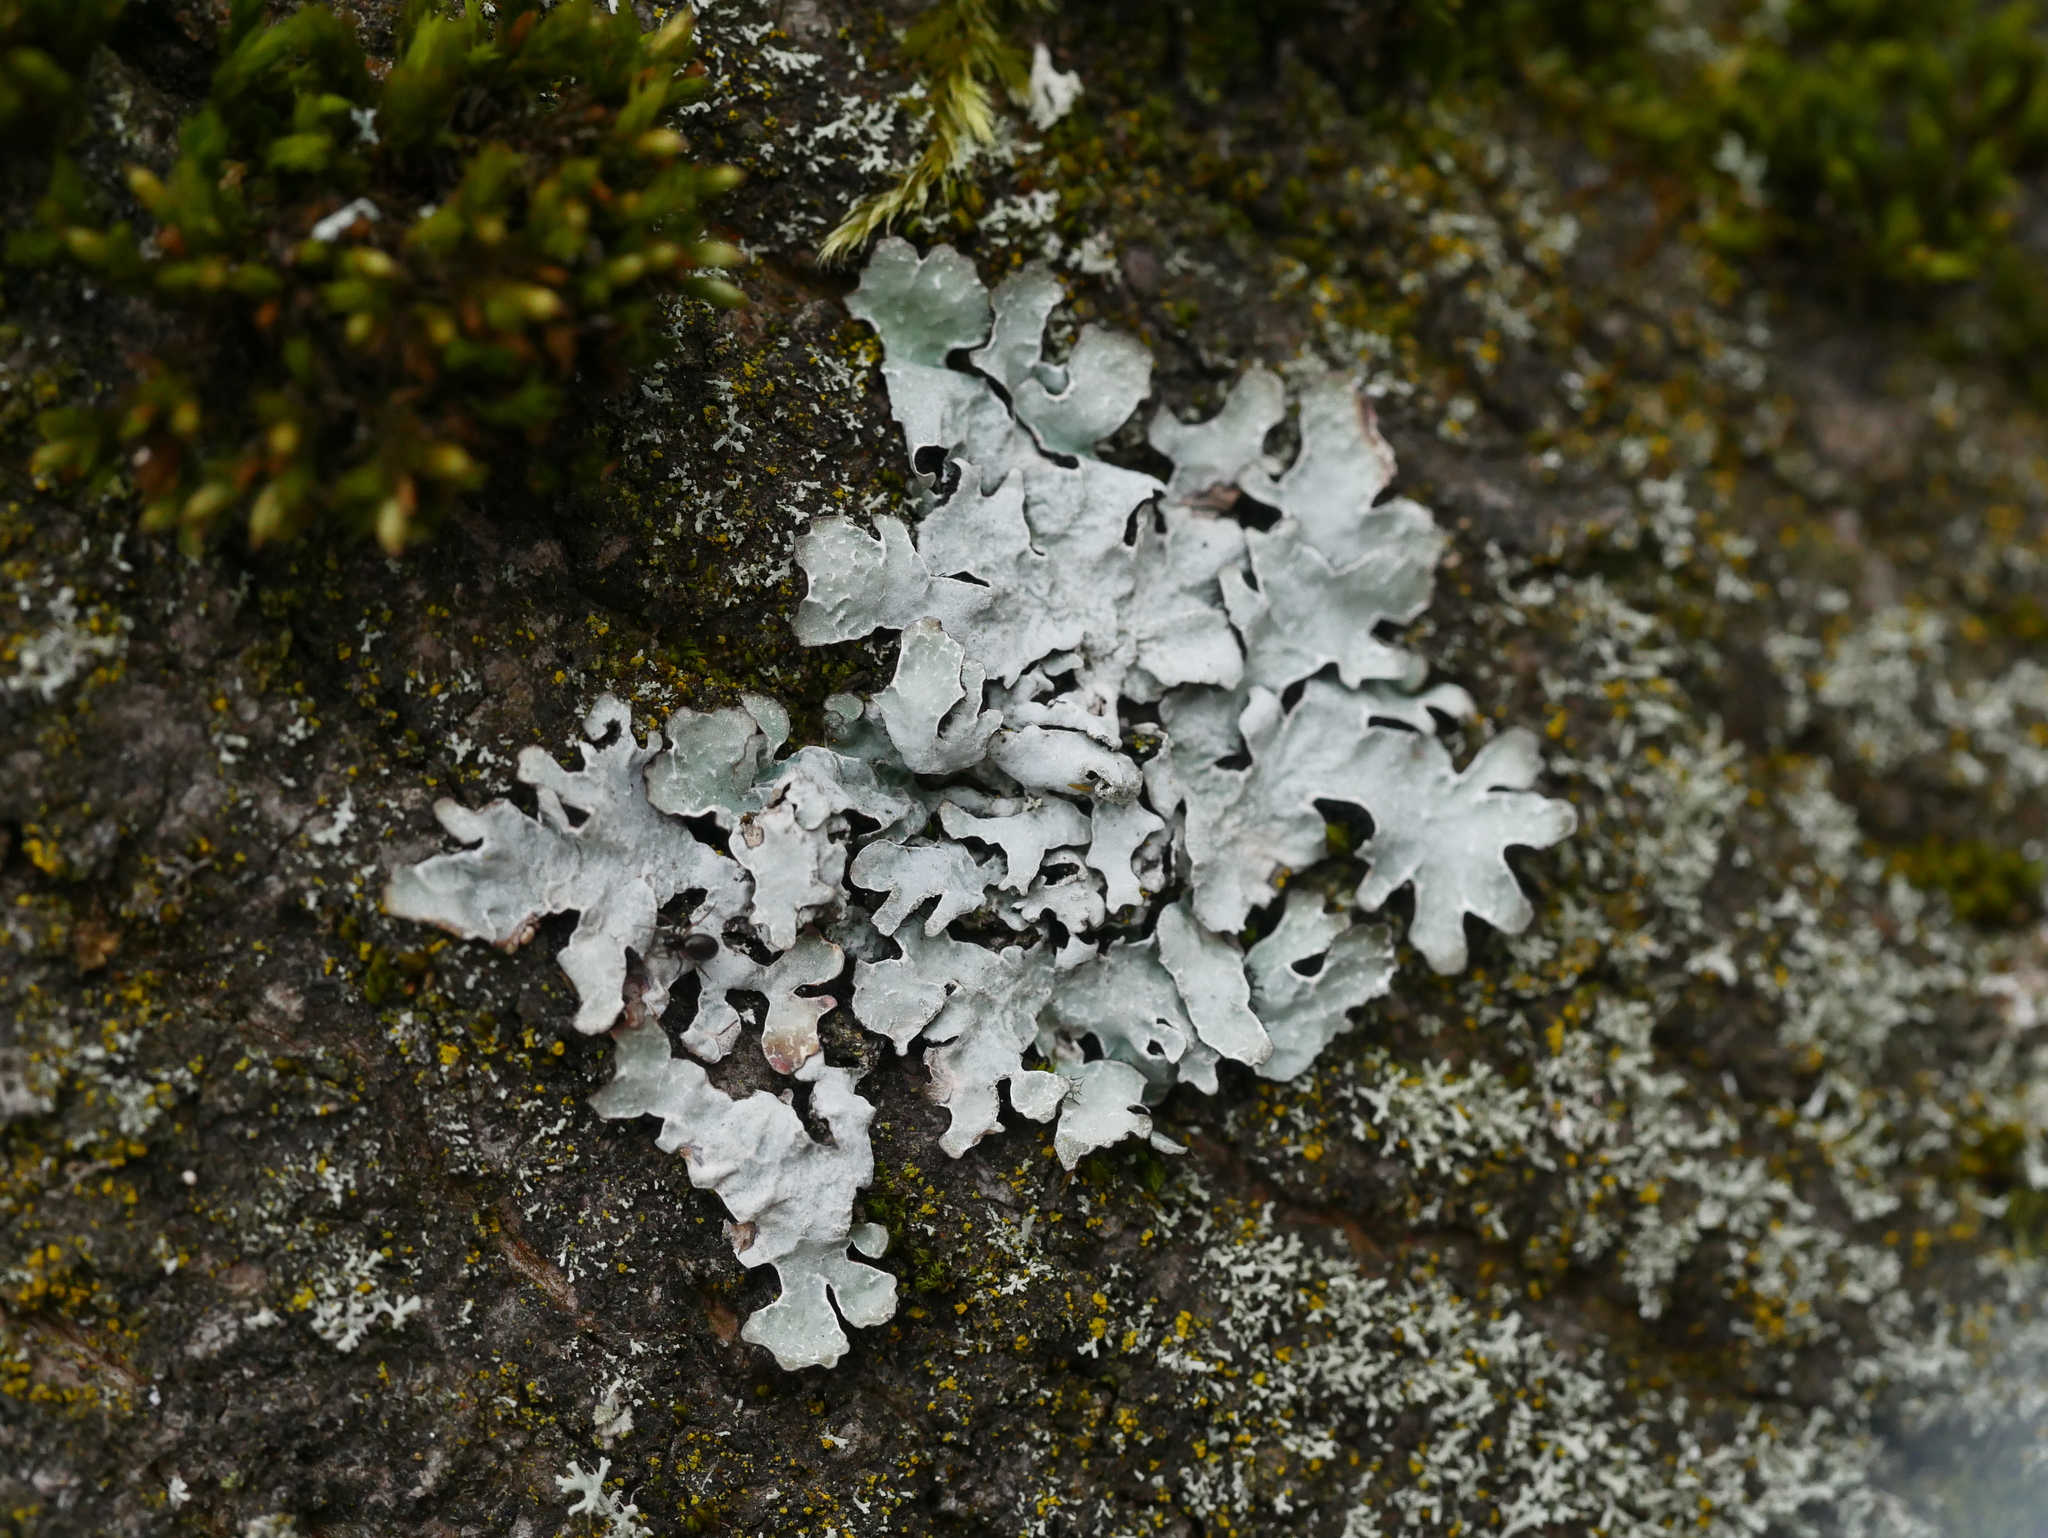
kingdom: Fungi
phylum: Ascomycota
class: Lecanoromycetes
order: Lecanorales
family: Parmeliaceae
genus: Parmelia
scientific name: Parmelia sulcata
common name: Netted shield lichen
